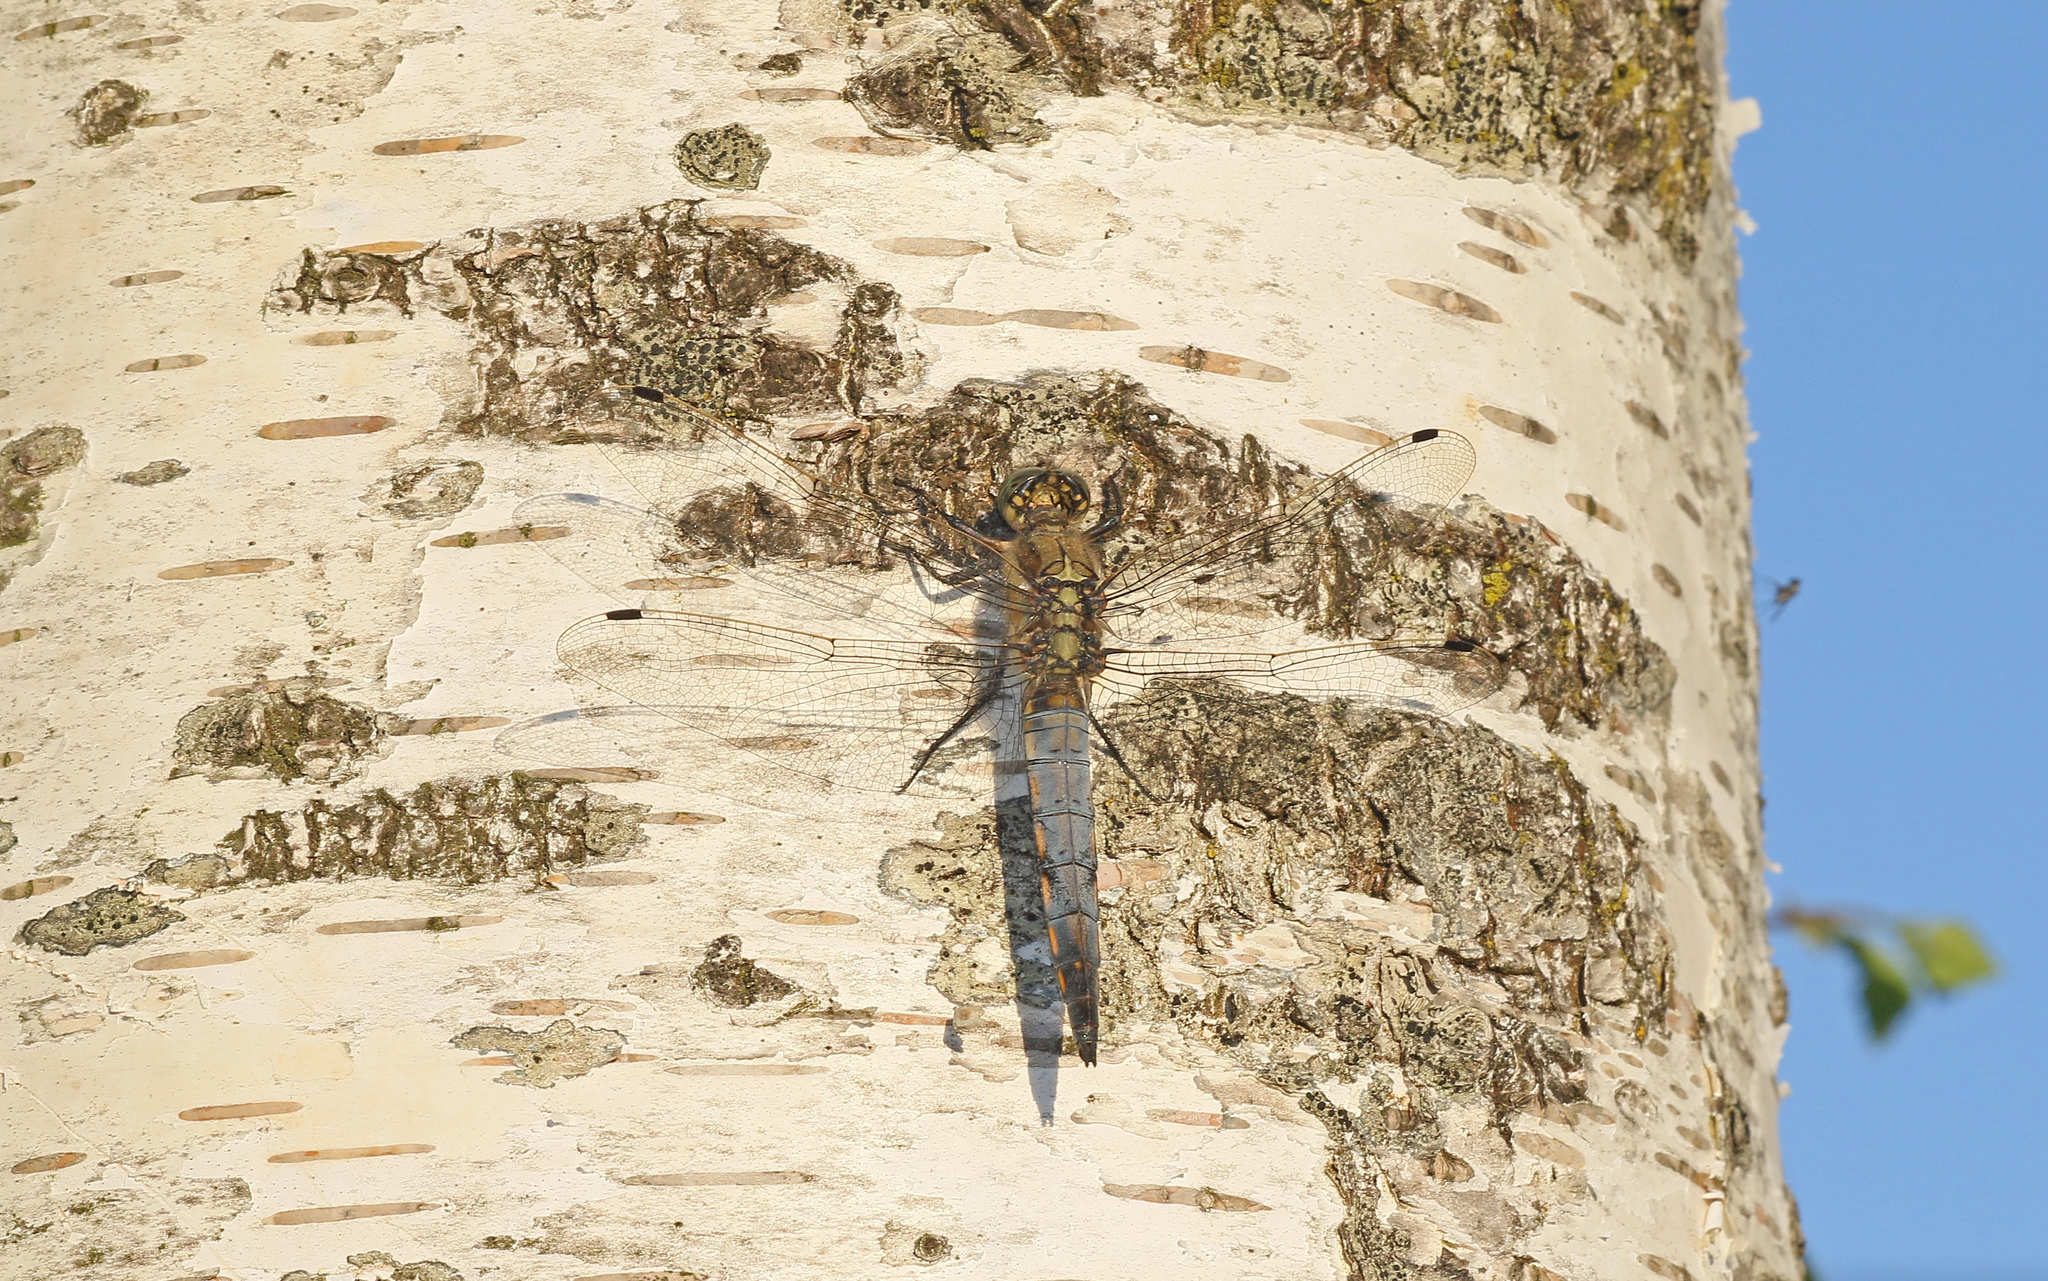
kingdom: Animalia
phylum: Arthropoda
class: Insecta
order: Odonata
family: Libellulidae
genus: Orthetrum
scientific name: Orthetrum cancellatum
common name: Black-tailed skimmer
